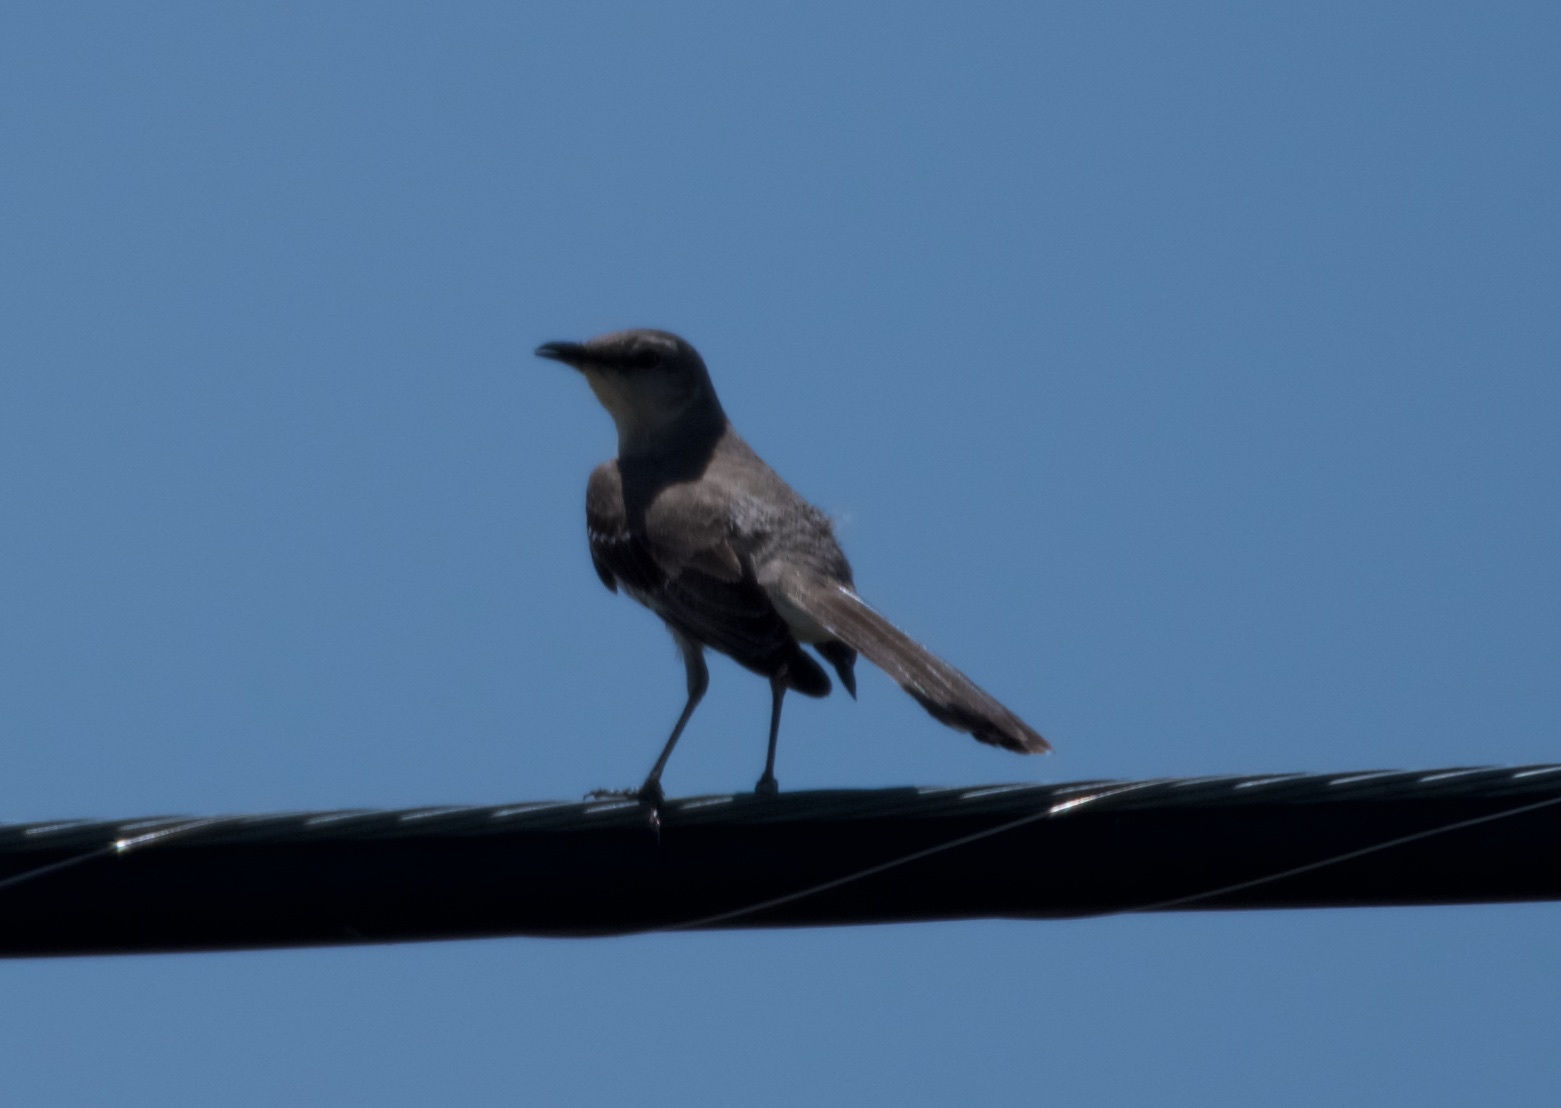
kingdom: Animalia
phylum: Chordata
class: Aves
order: Passeriformes
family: Mimidae
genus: Mimus
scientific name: Mimus polyglottos
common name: Northern mockingbird
